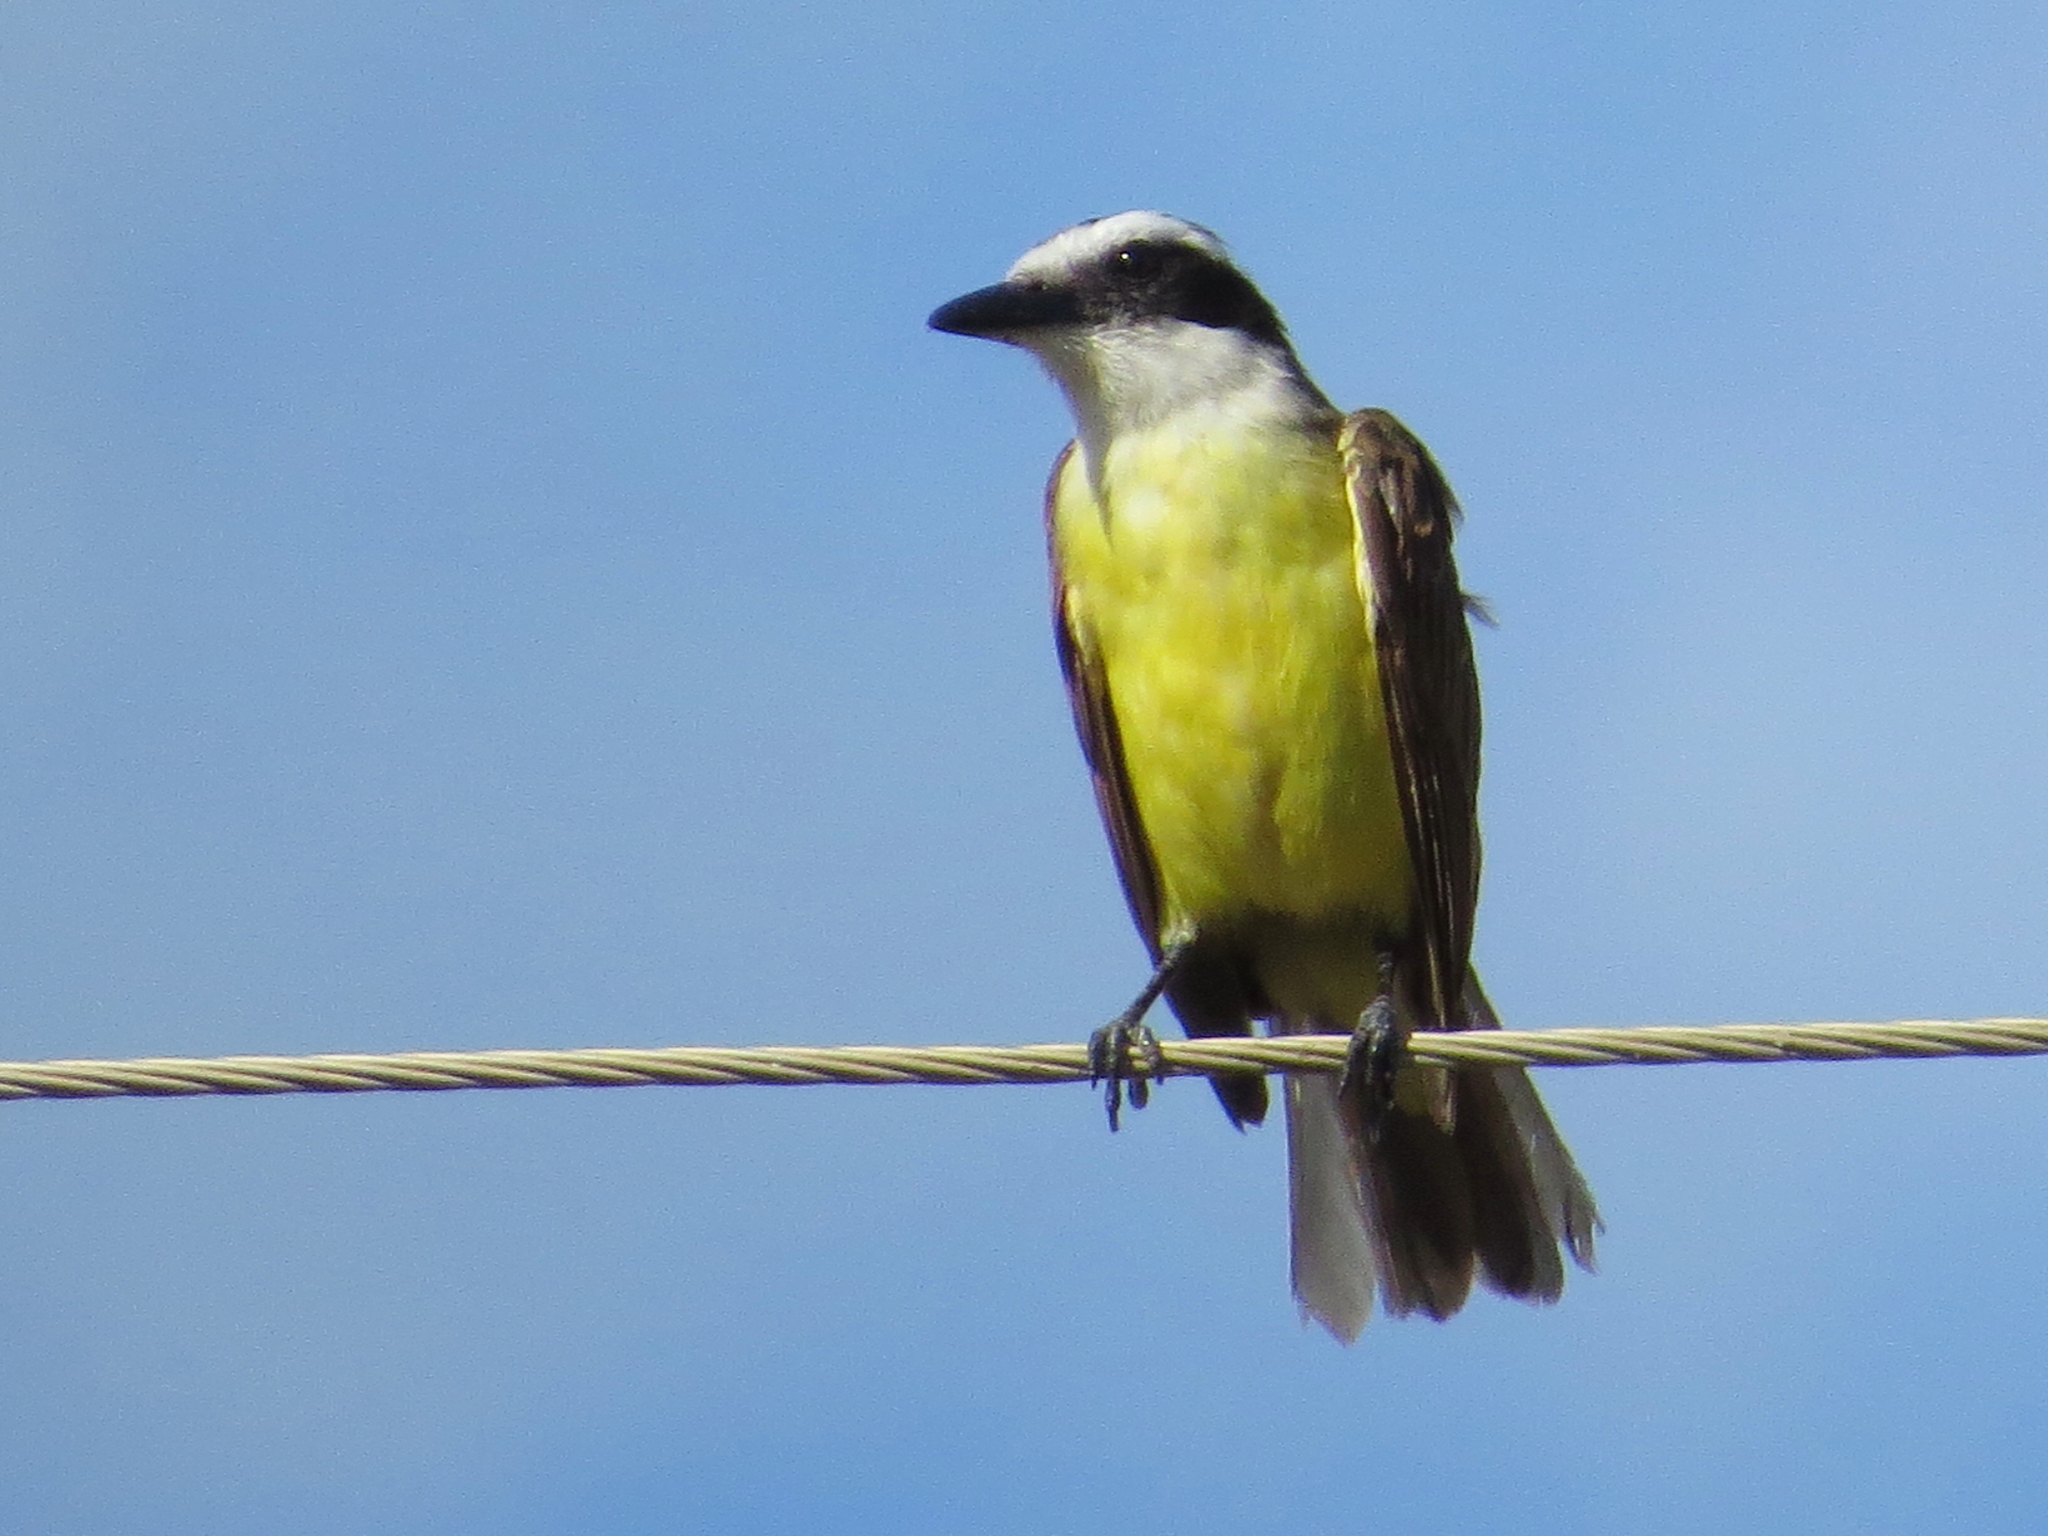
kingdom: Animalia
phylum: Chordata
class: Aves
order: Passeriformes
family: Tyrannidae
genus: Pitangus
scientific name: Pitangus sulphuratus
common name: Great kiskadee
